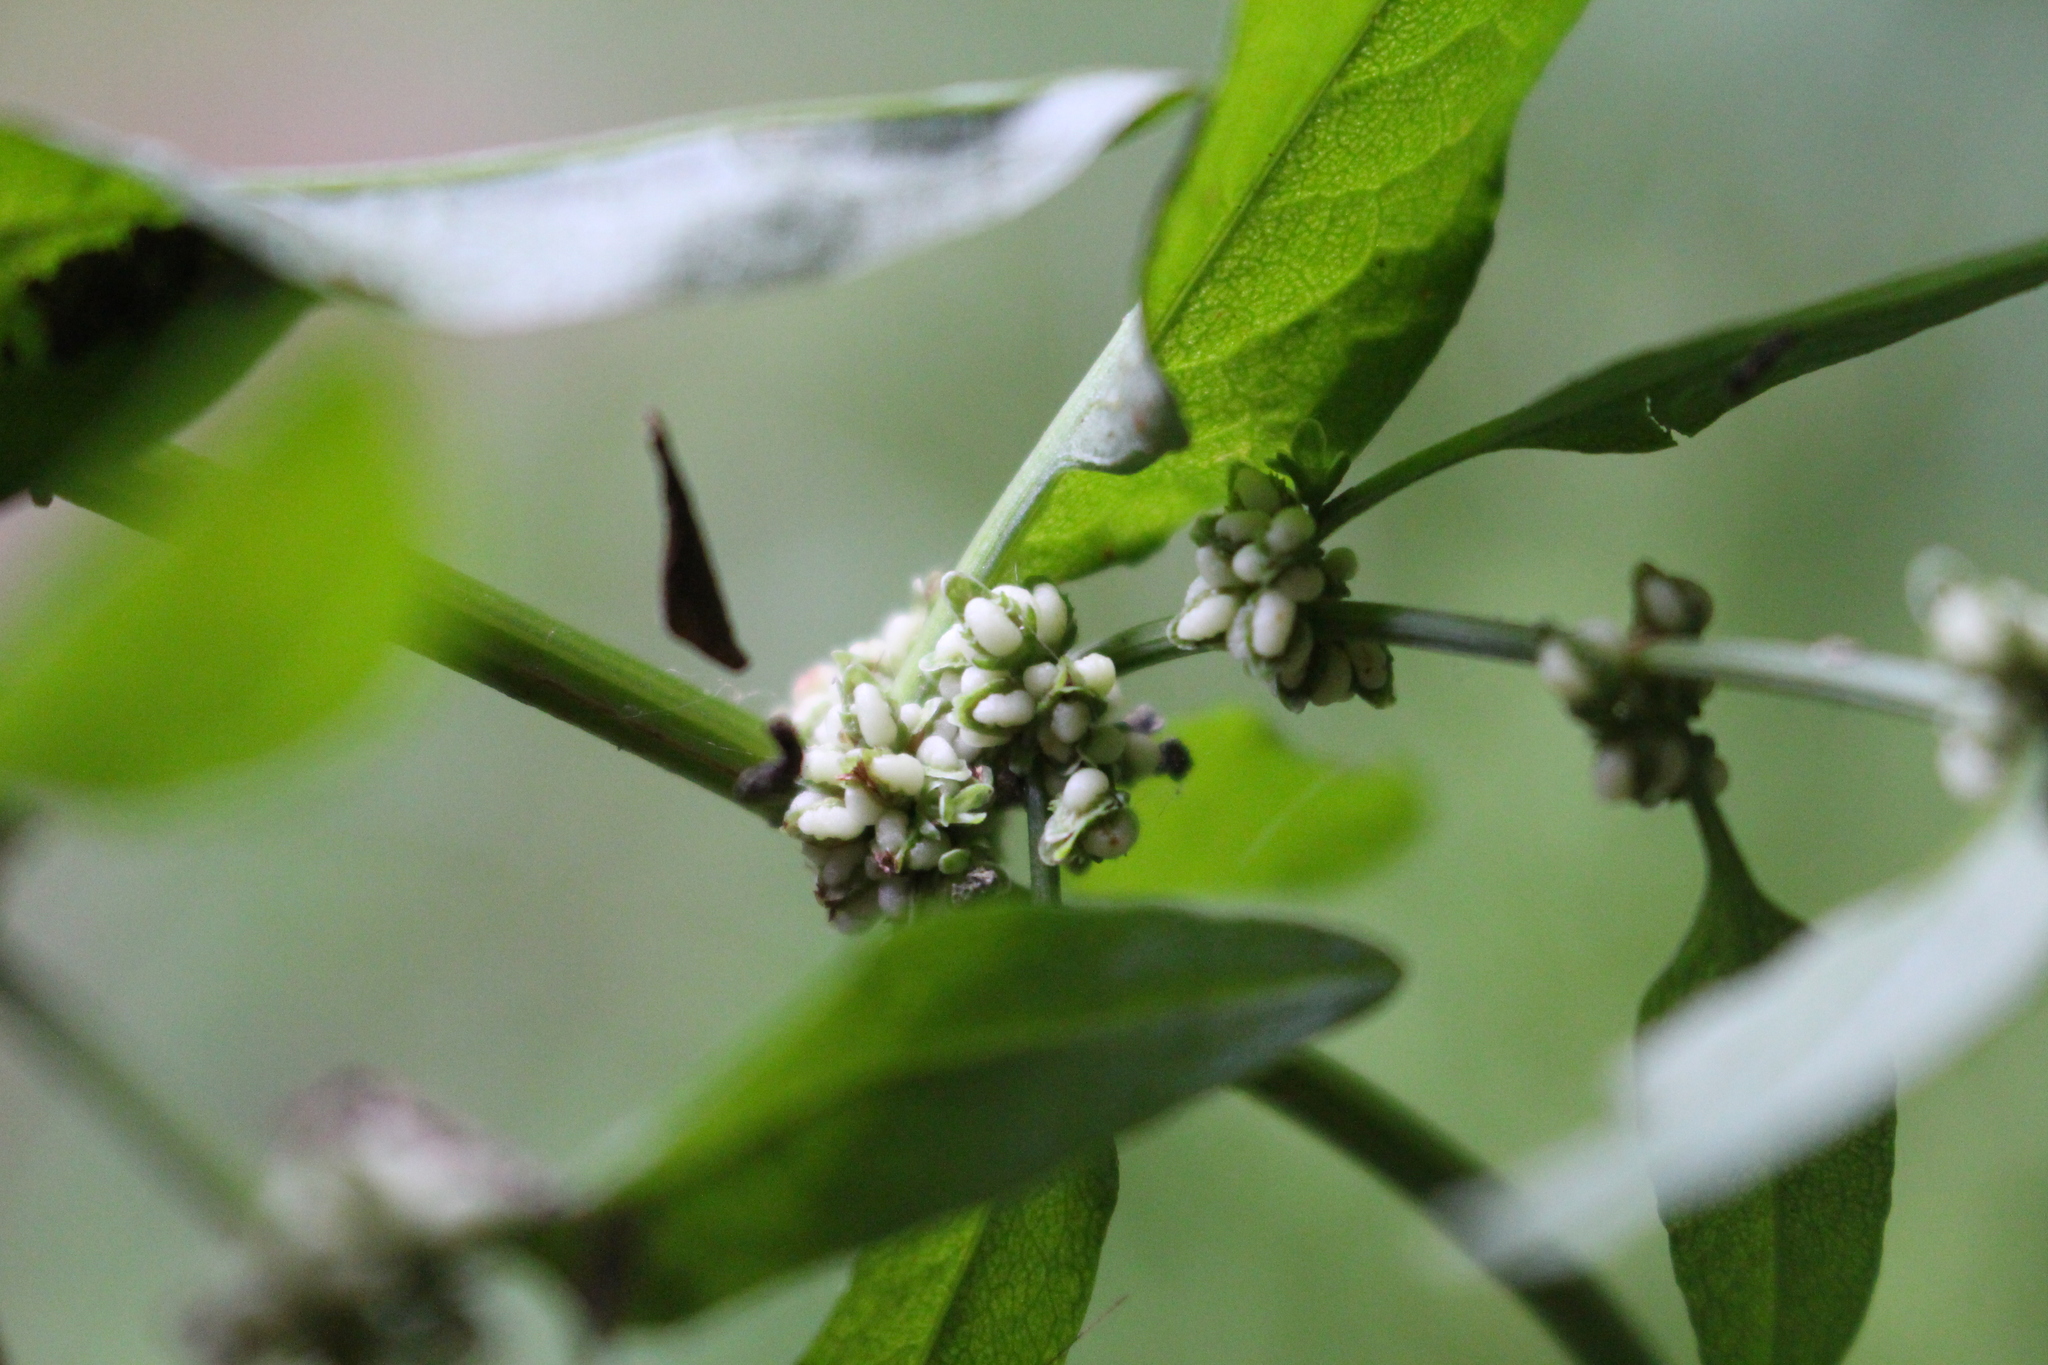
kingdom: Plantae
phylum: Tracheophyta
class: Magnoliopsida
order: Caryophyllales
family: Polygonaceae
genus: Rumex
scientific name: Rumex conglomeratus
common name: Clustered dock
